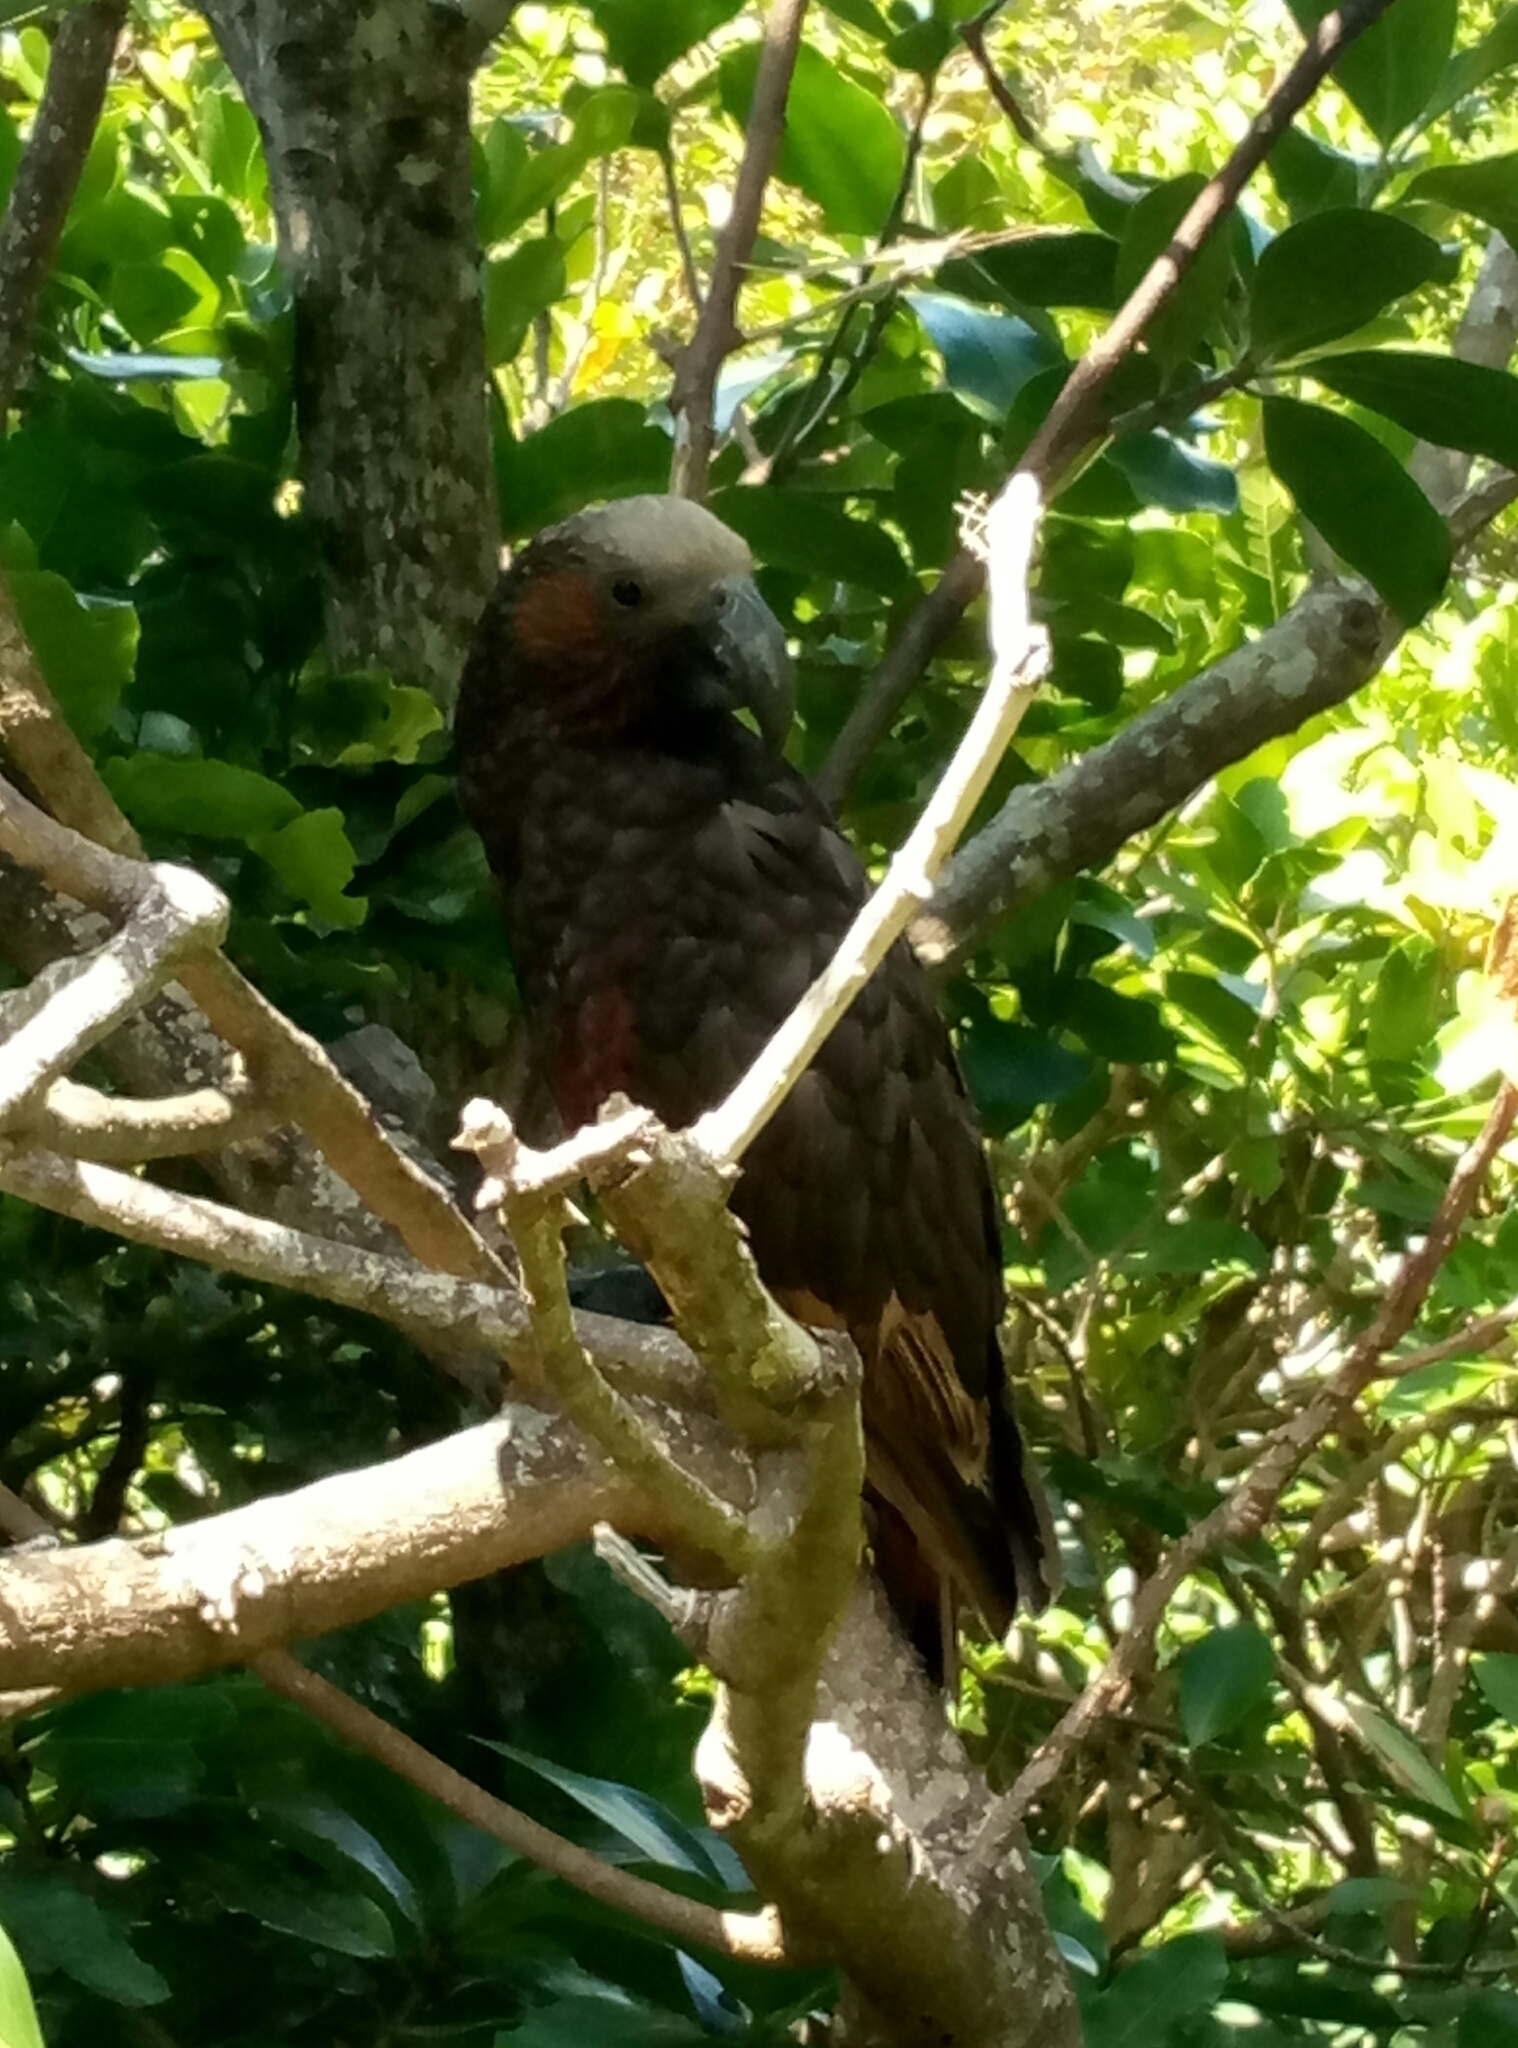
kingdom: Animalia
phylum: Chordata
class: Aves
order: Psittaciformes
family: Psittacidae
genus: Nestor
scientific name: Nestor meridionalis
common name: New zealand kaka
